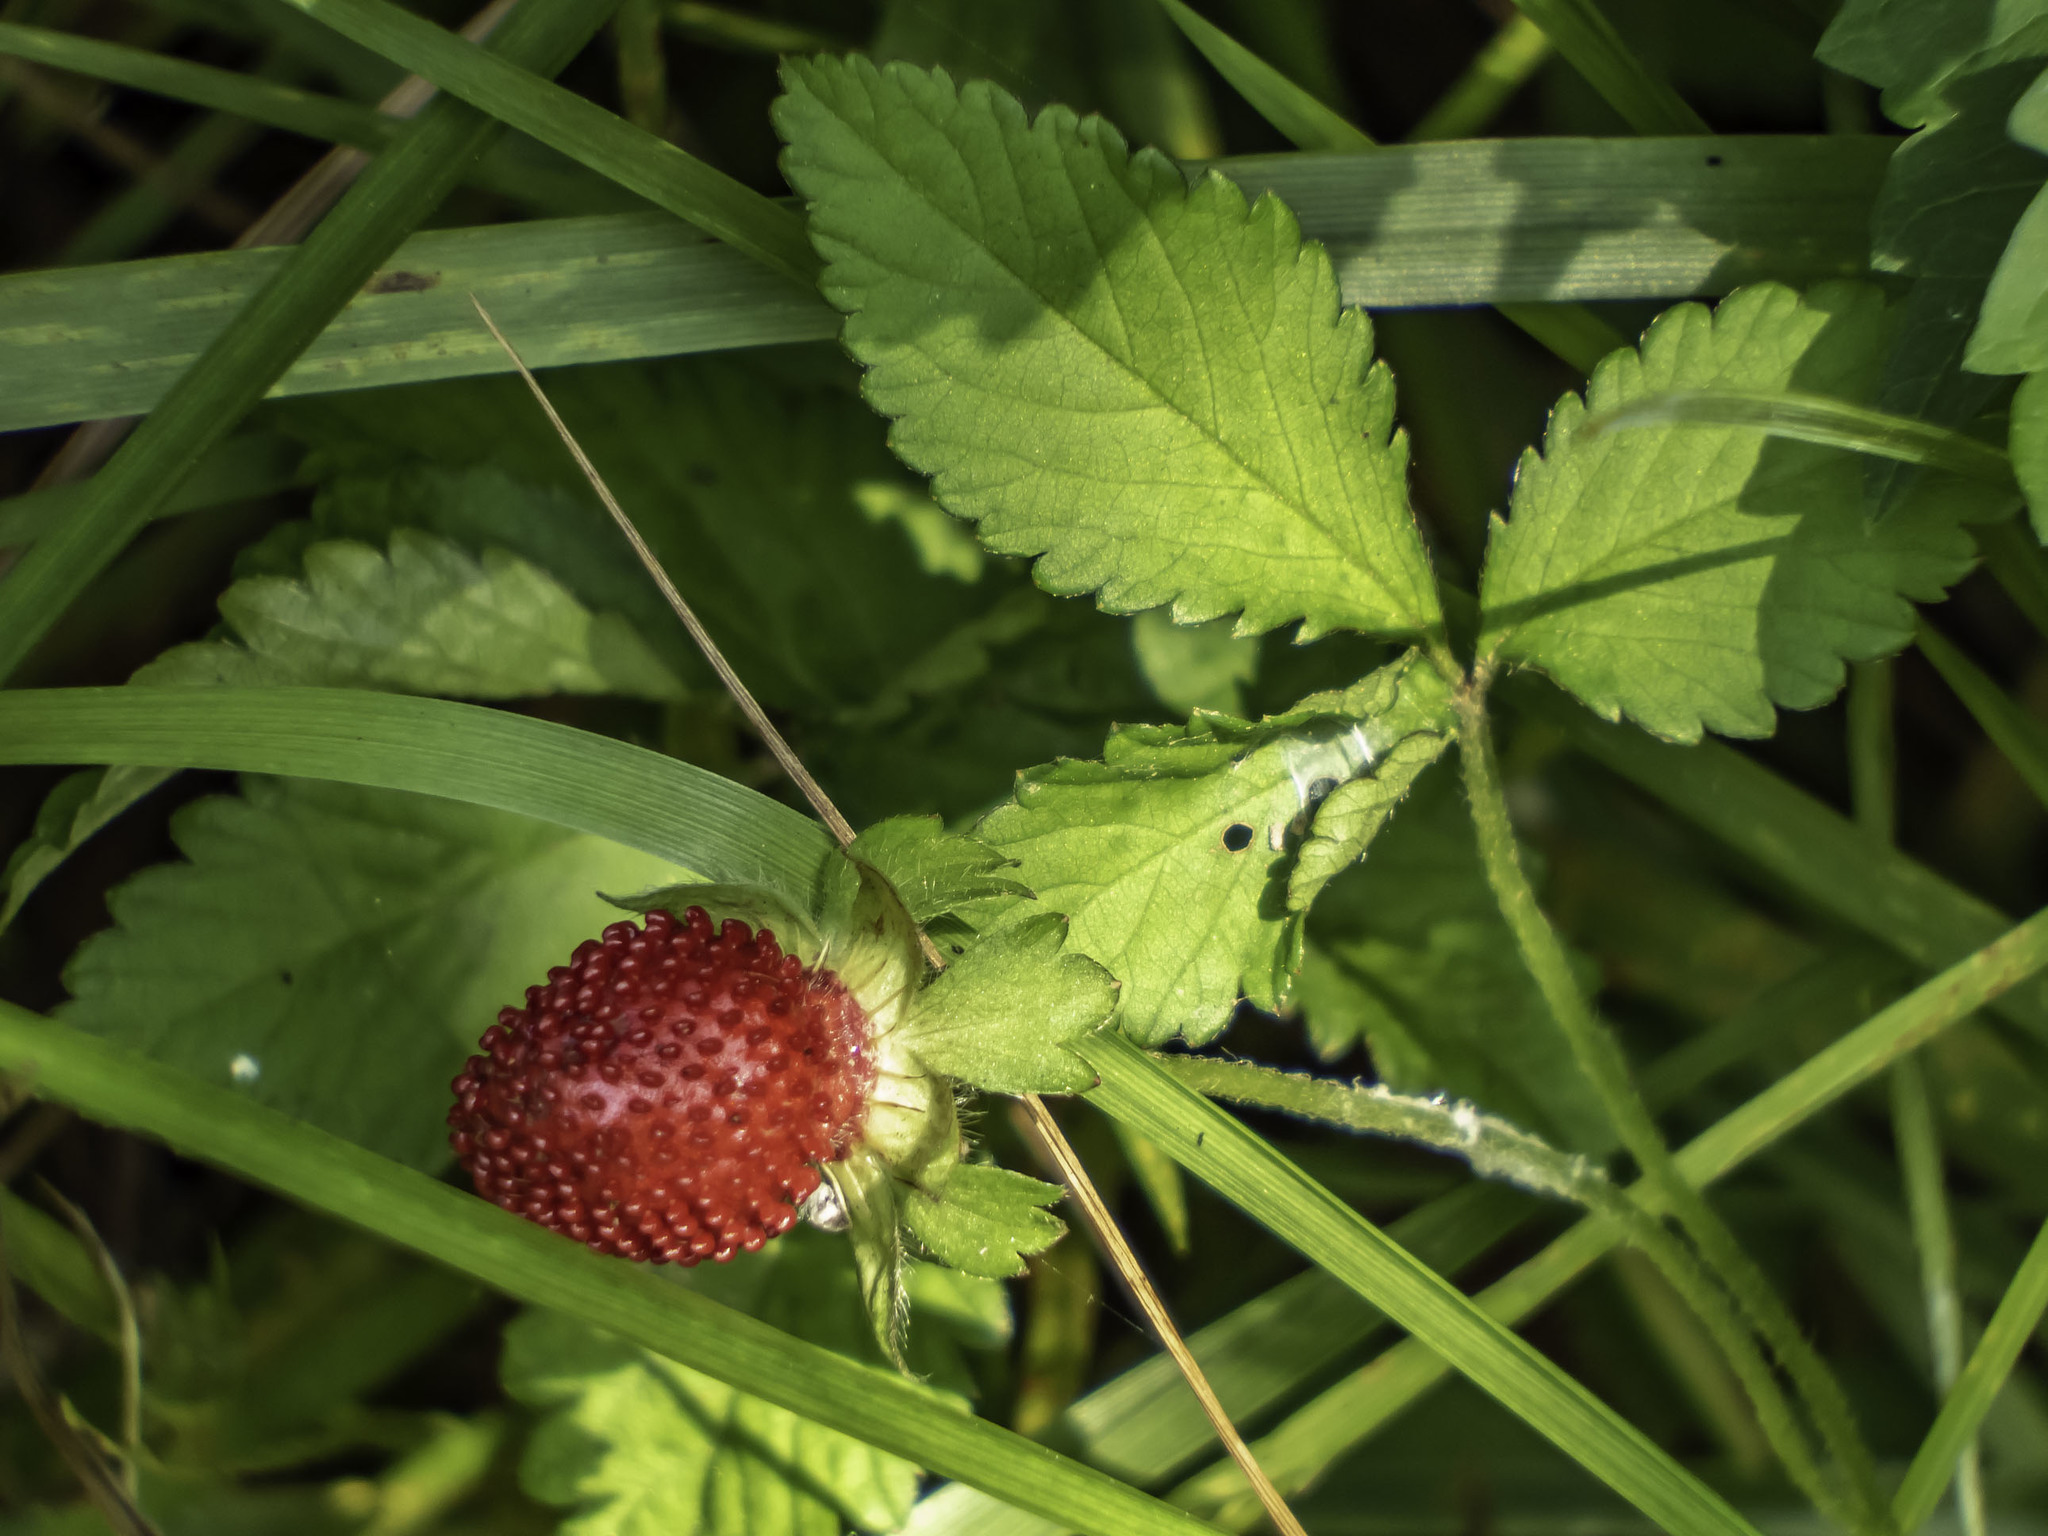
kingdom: Plantae
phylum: Tracheophyta
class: Magnoliopsida
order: Rosales
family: Rosaceae
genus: Potentilla
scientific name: Potentilla indica
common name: Yellow-flowered strawberry
